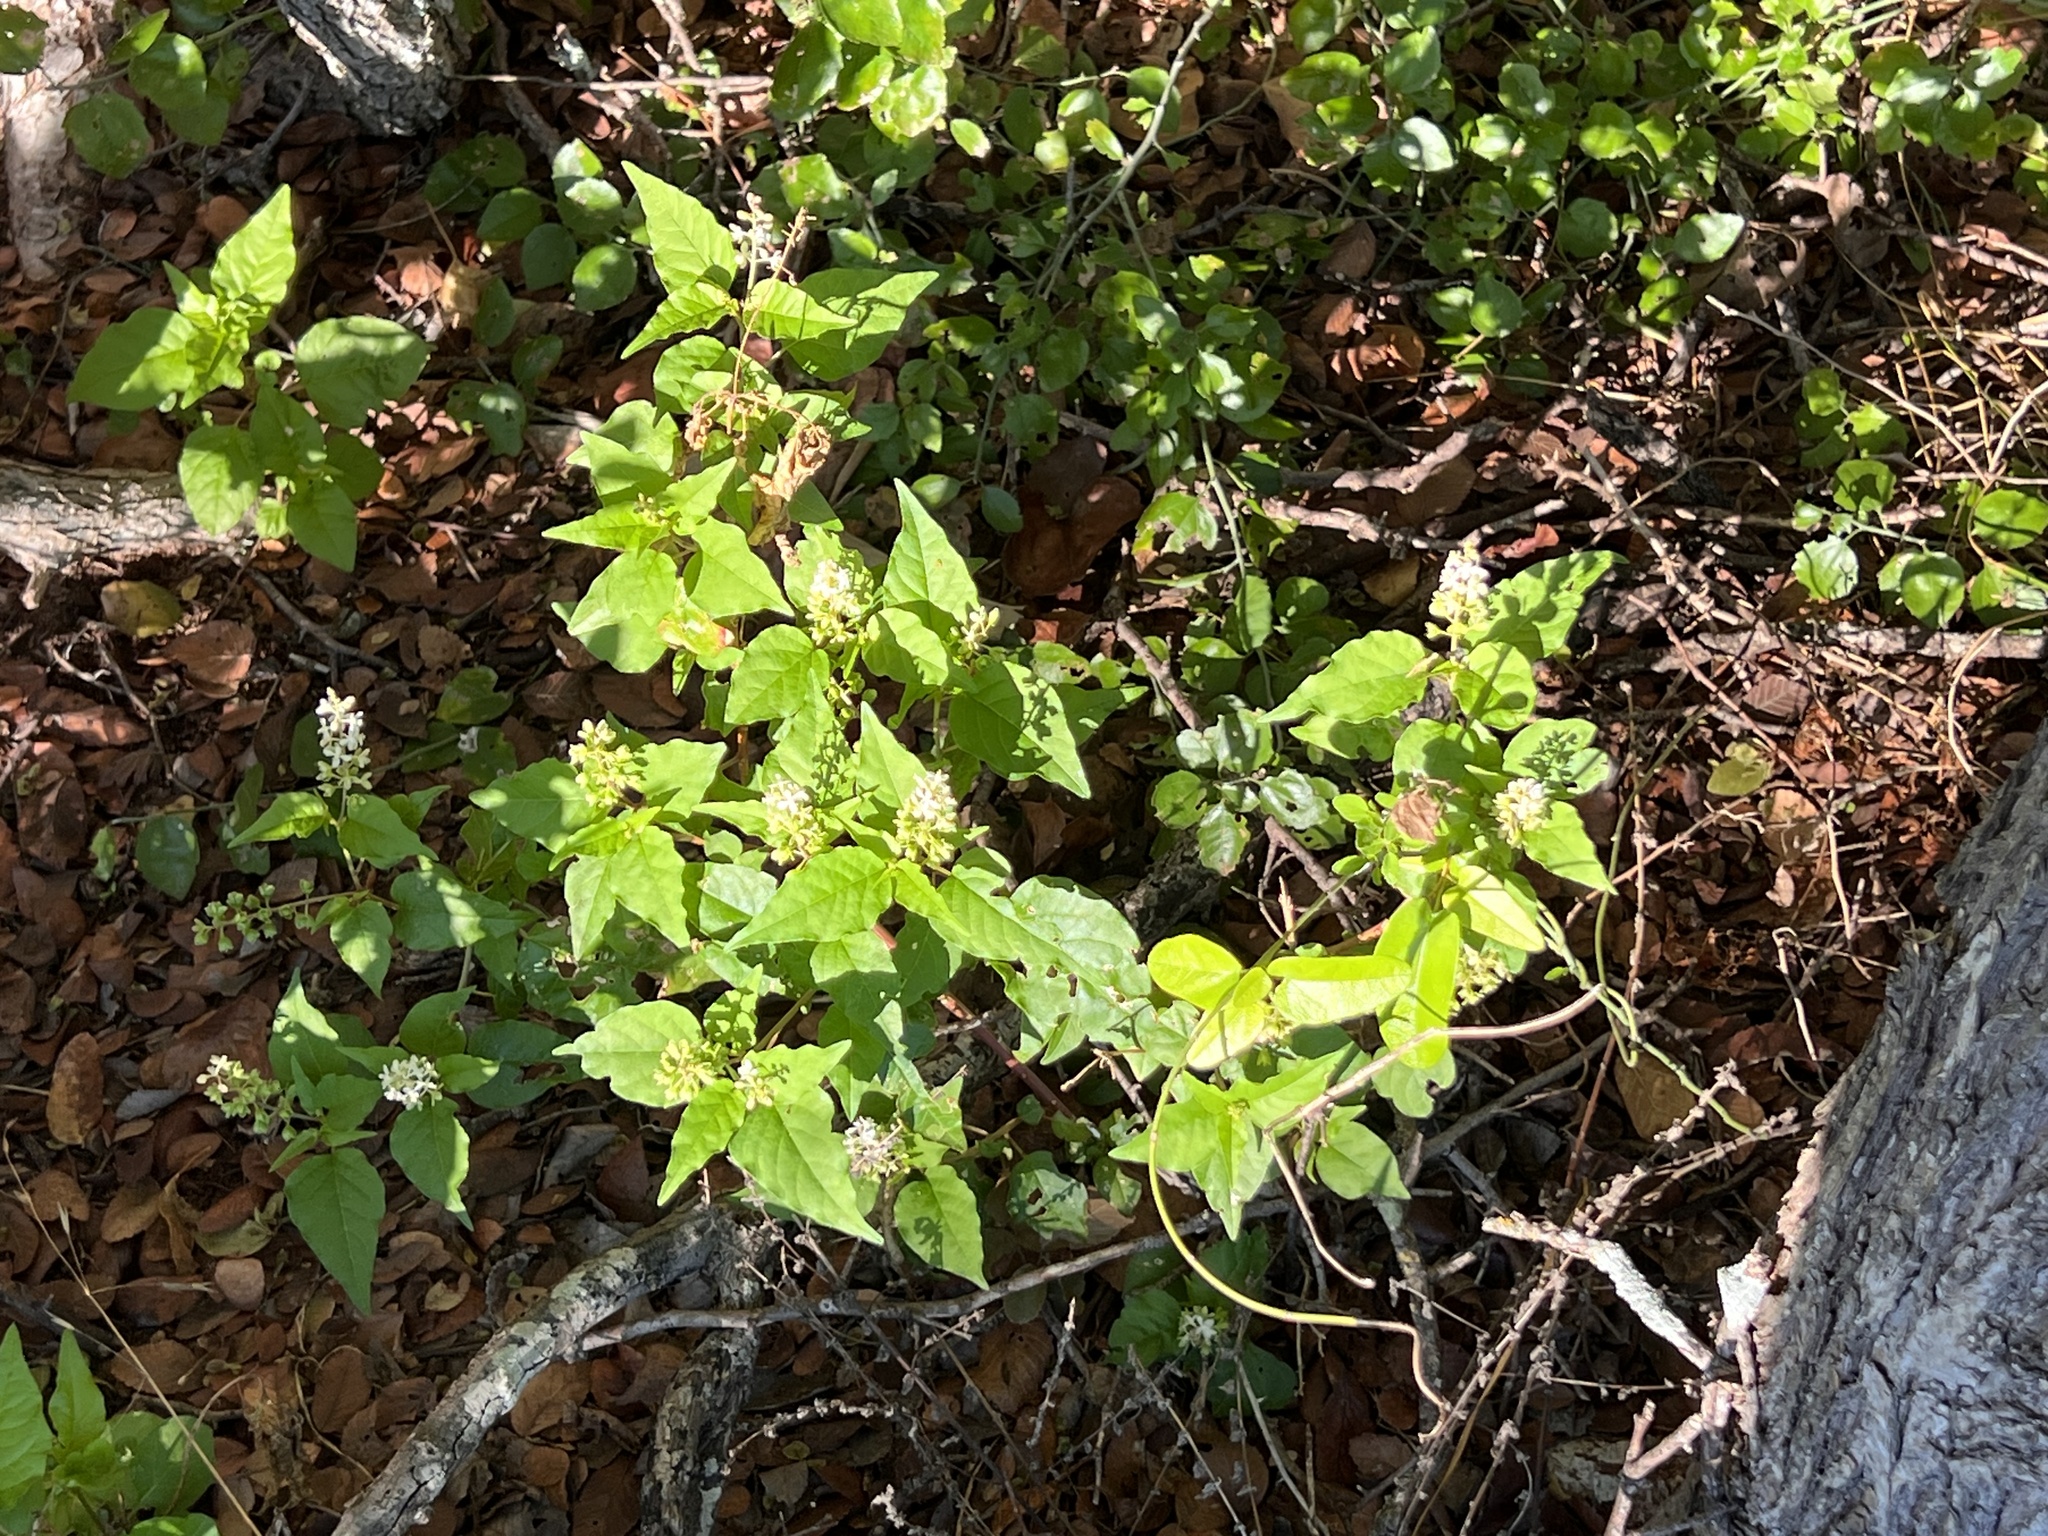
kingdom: Plantae
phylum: Tracheophyta
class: Magnoliopsida
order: Caryophyllales
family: Phytolaccaceae
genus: Rivina
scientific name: Rivina humilis
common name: Rougeplant
